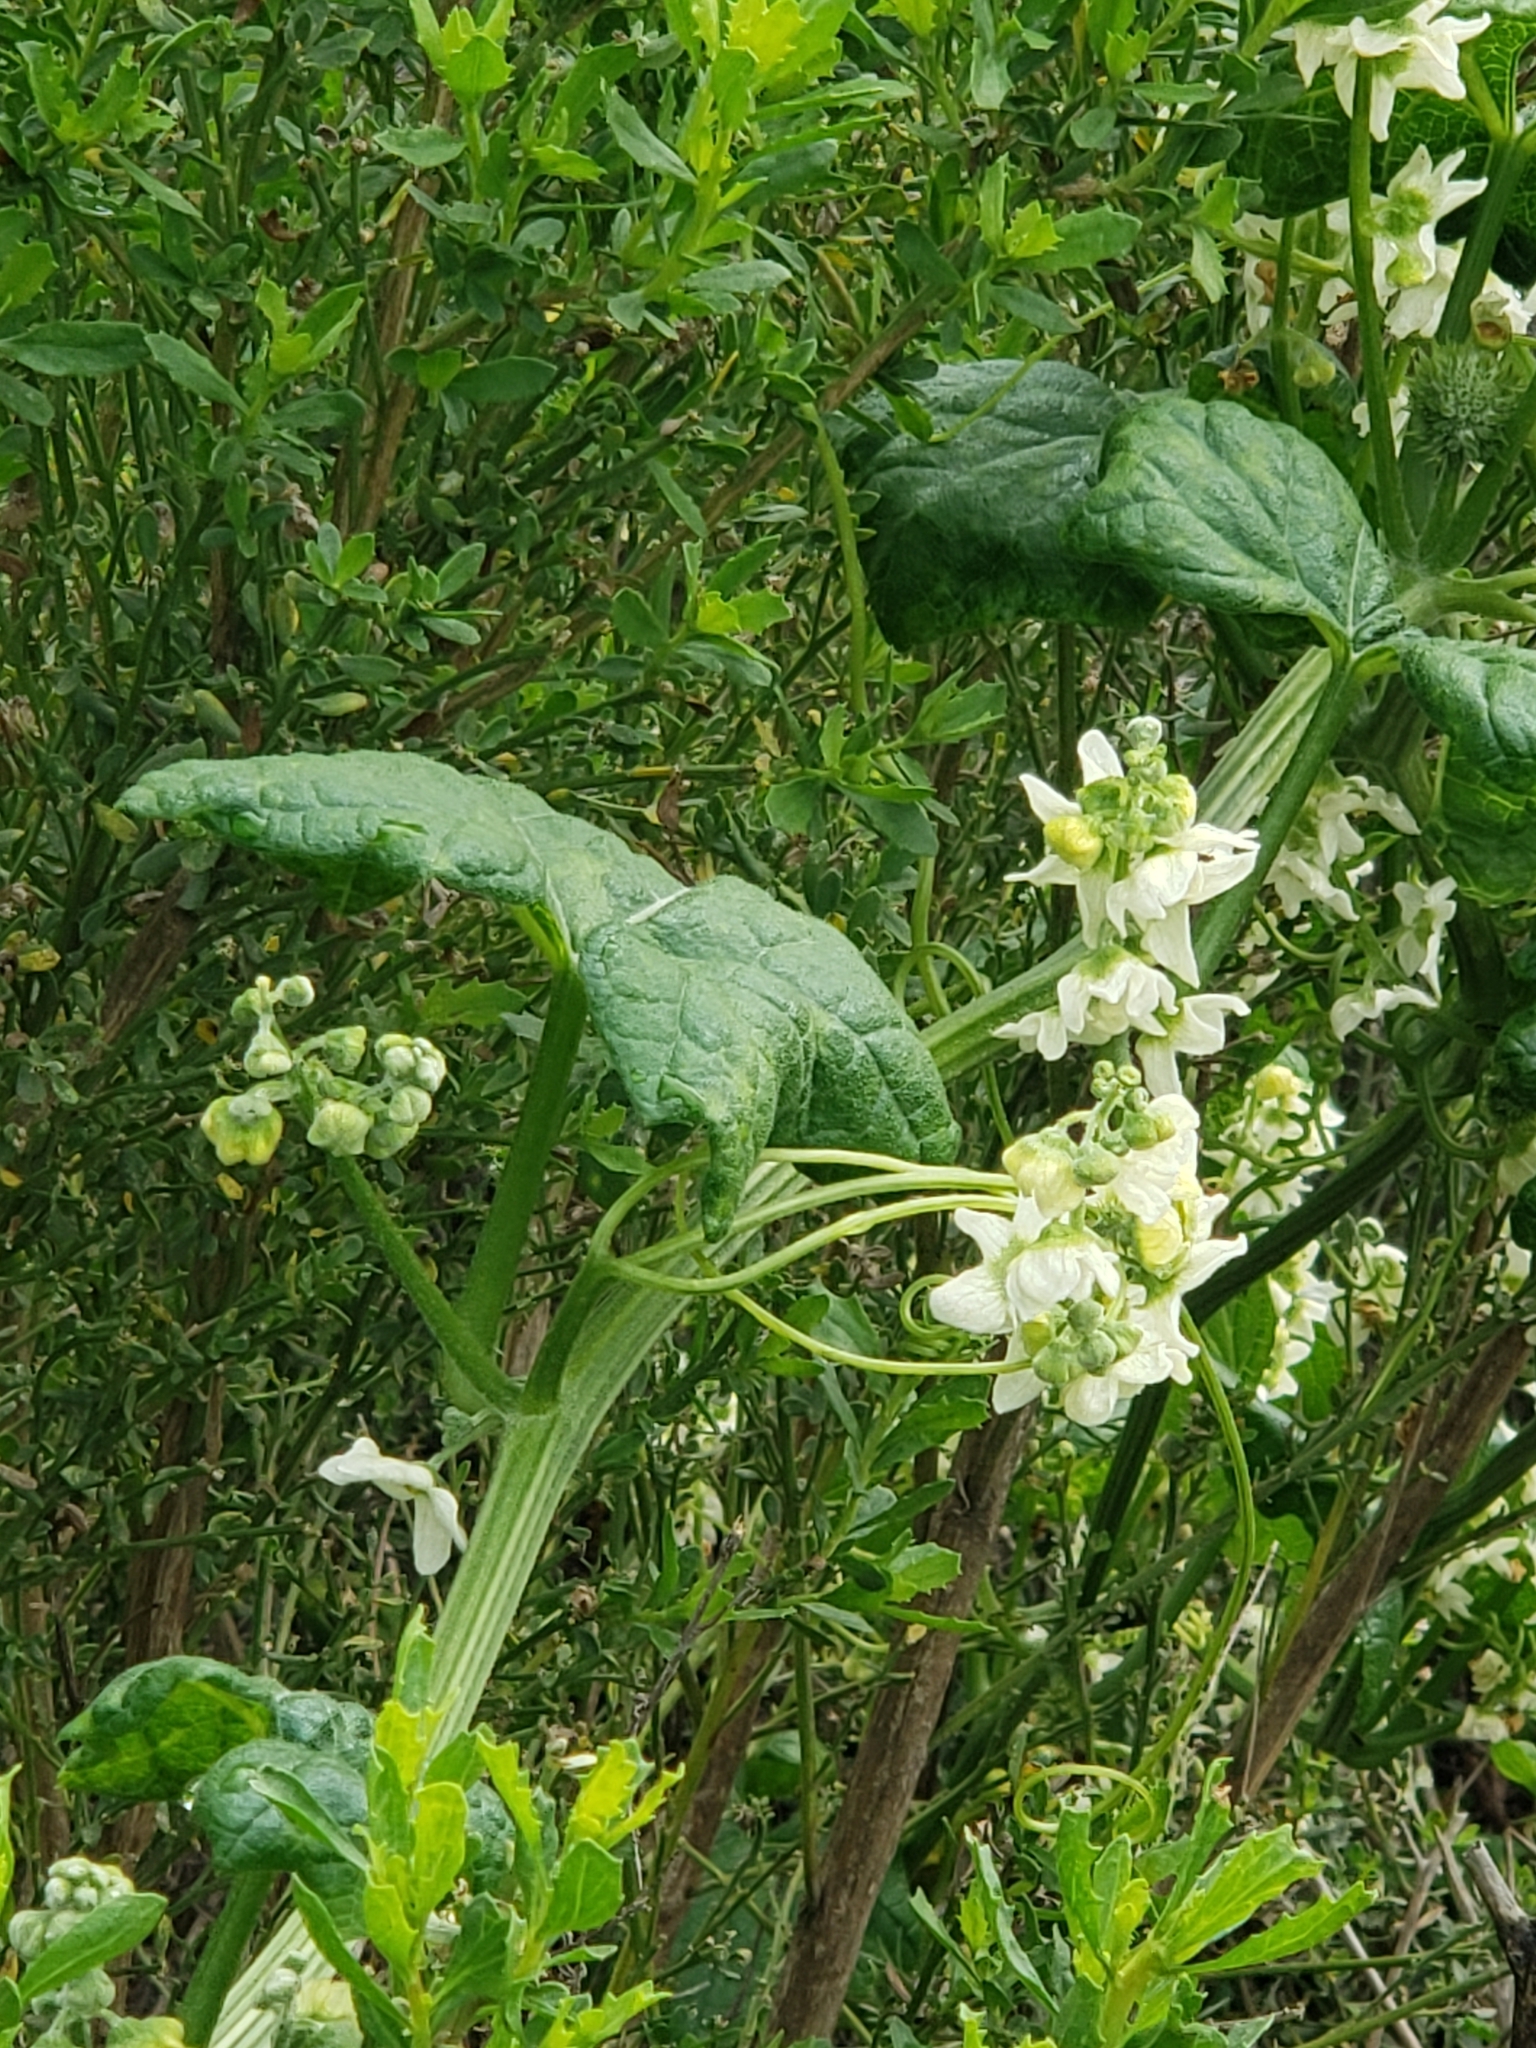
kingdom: Plantae
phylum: Tracheophyta
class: Magnoliopsida
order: Cucurbitales
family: Cucurbitaceae
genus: Marah
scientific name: Marah macrocarpa
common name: Cucamonga manroot
